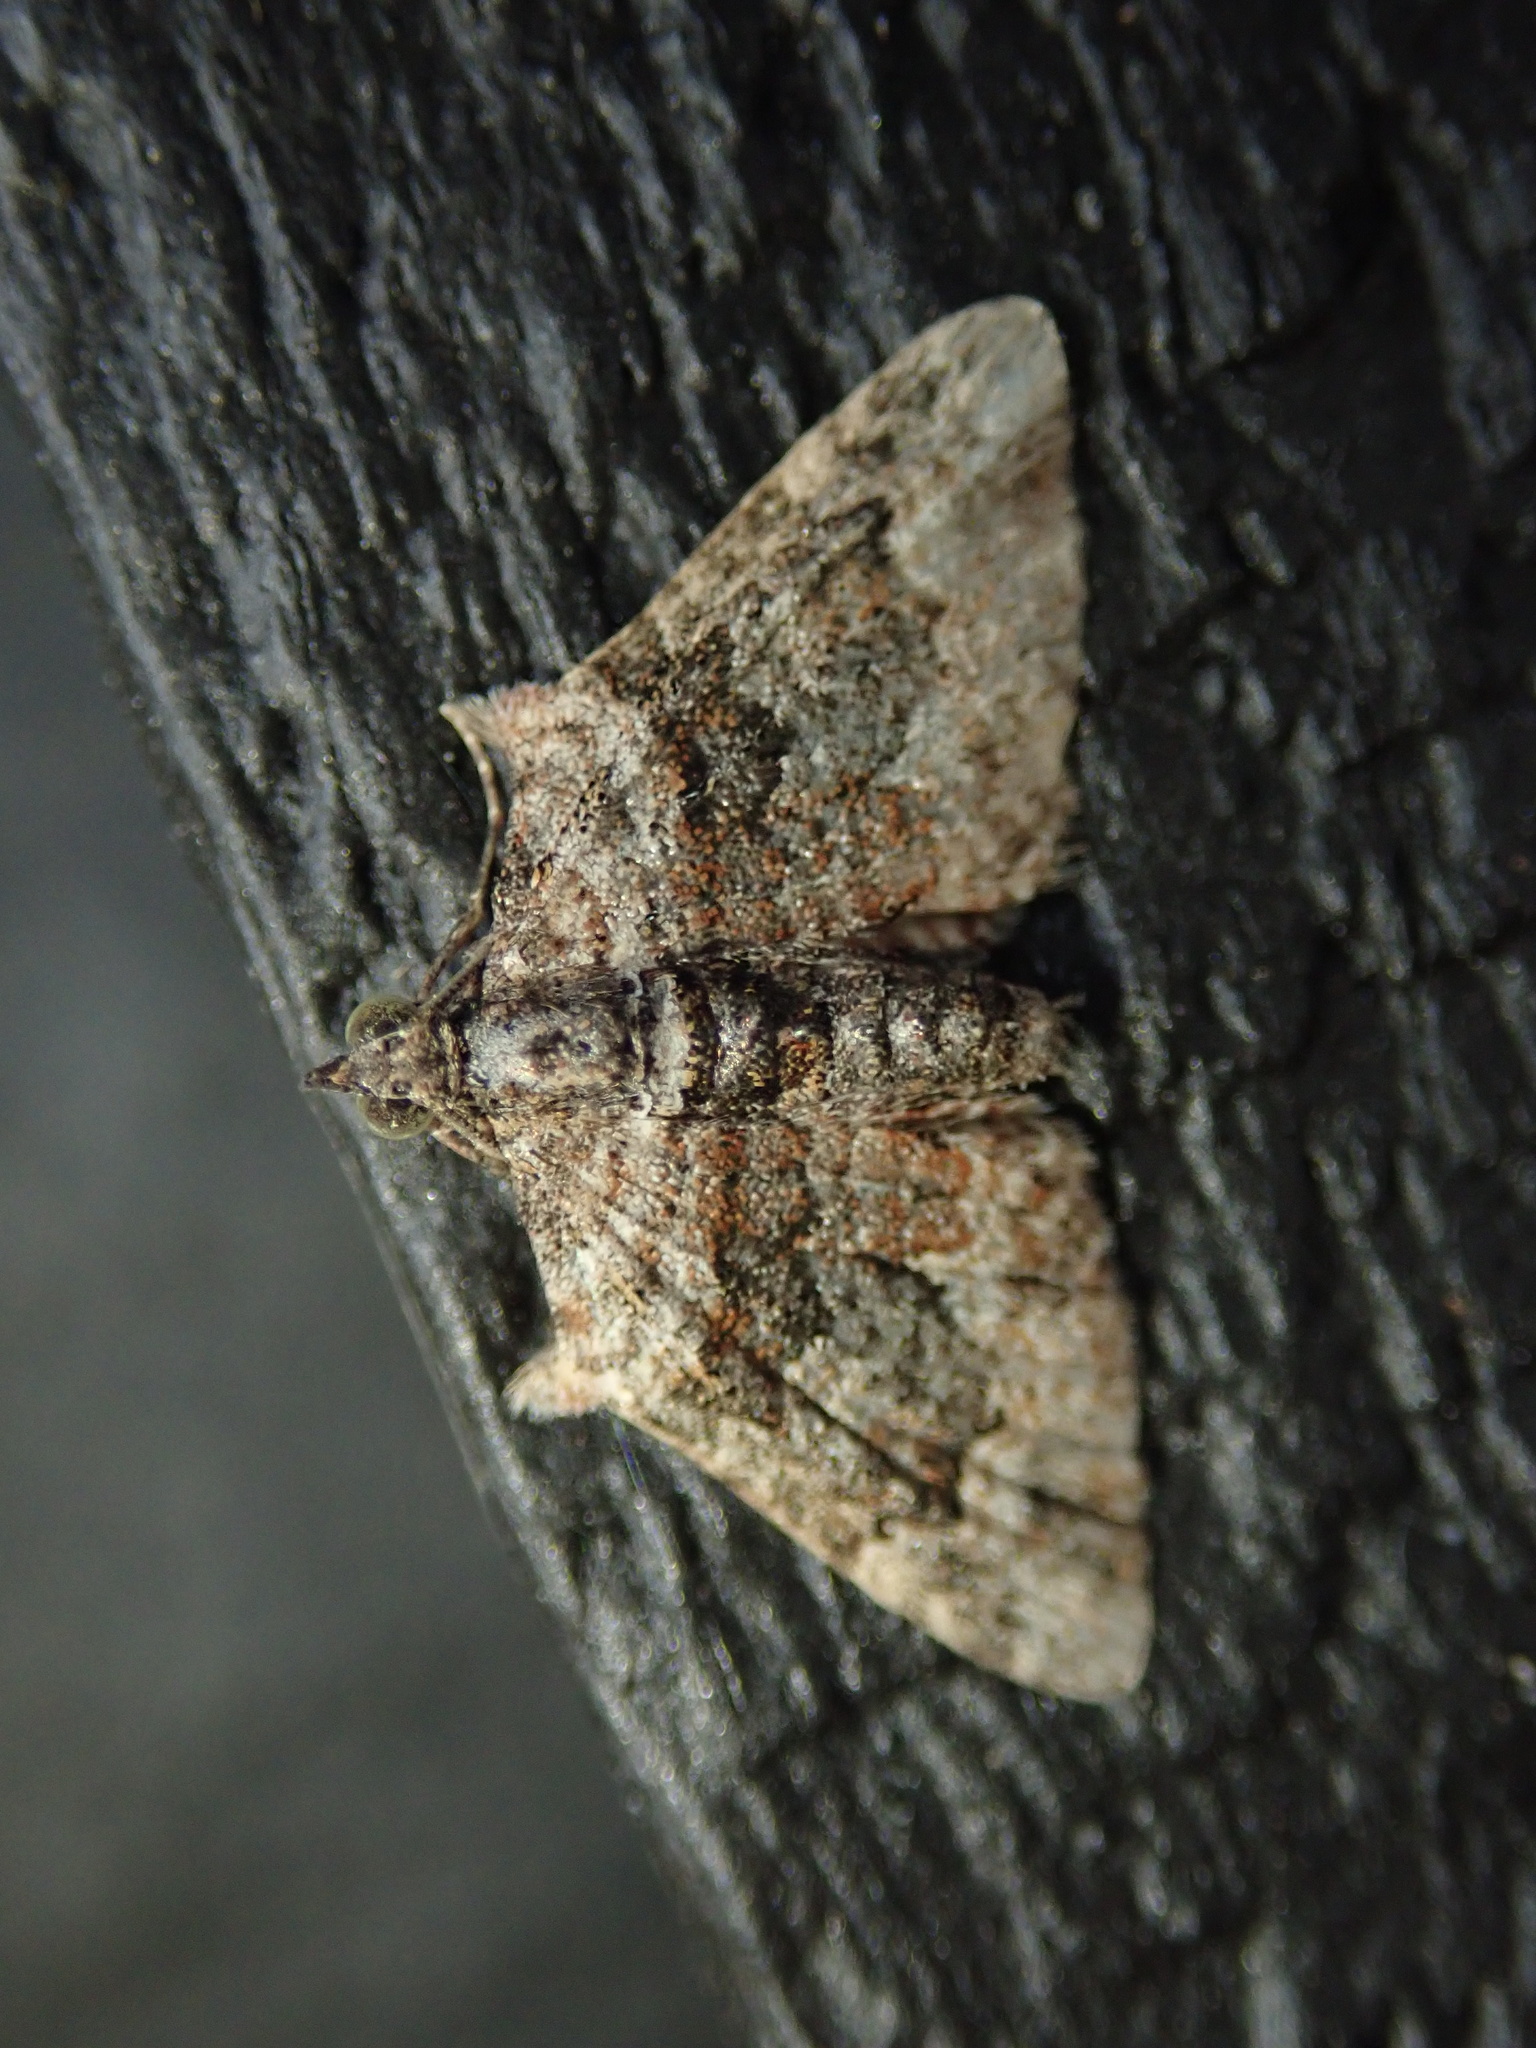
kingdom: Animalia
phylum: Arthropoda
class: Insecta
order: Lepidoptera
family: Geometridae
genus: Phrissogonus
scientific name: Phrissogonus laticostata
